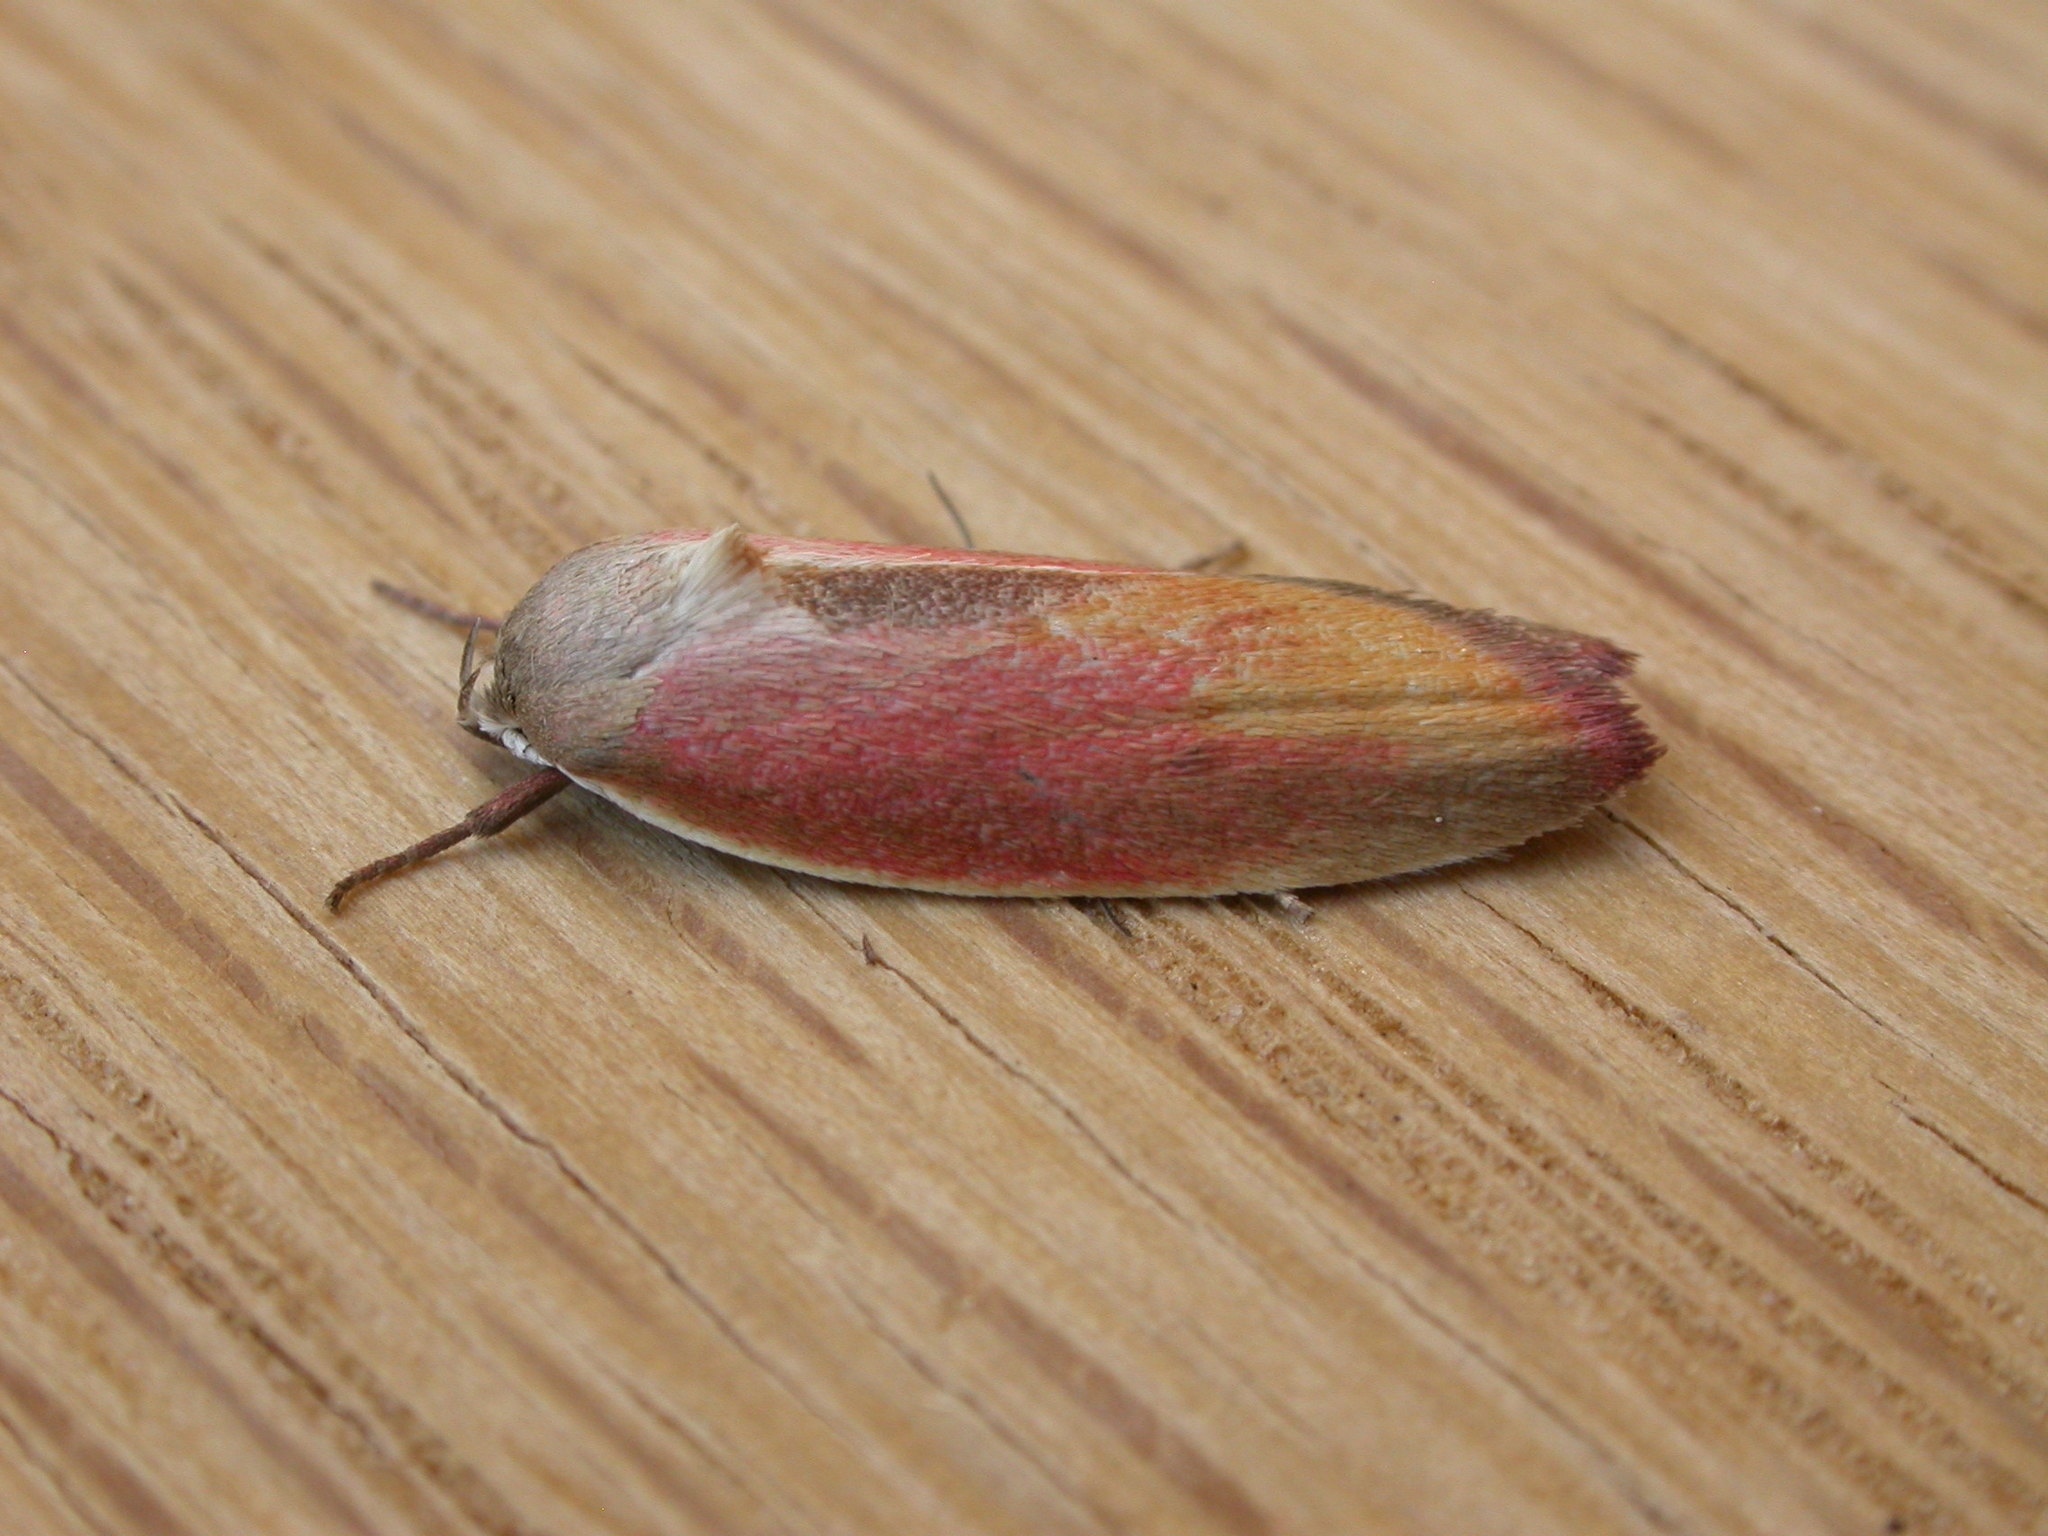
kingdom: Animalia
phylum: Arthropoda
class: Insecta
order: Lepidoptera
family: Oecophoridae
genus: Ptyoptila
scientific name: Ptyoptila matutinella
